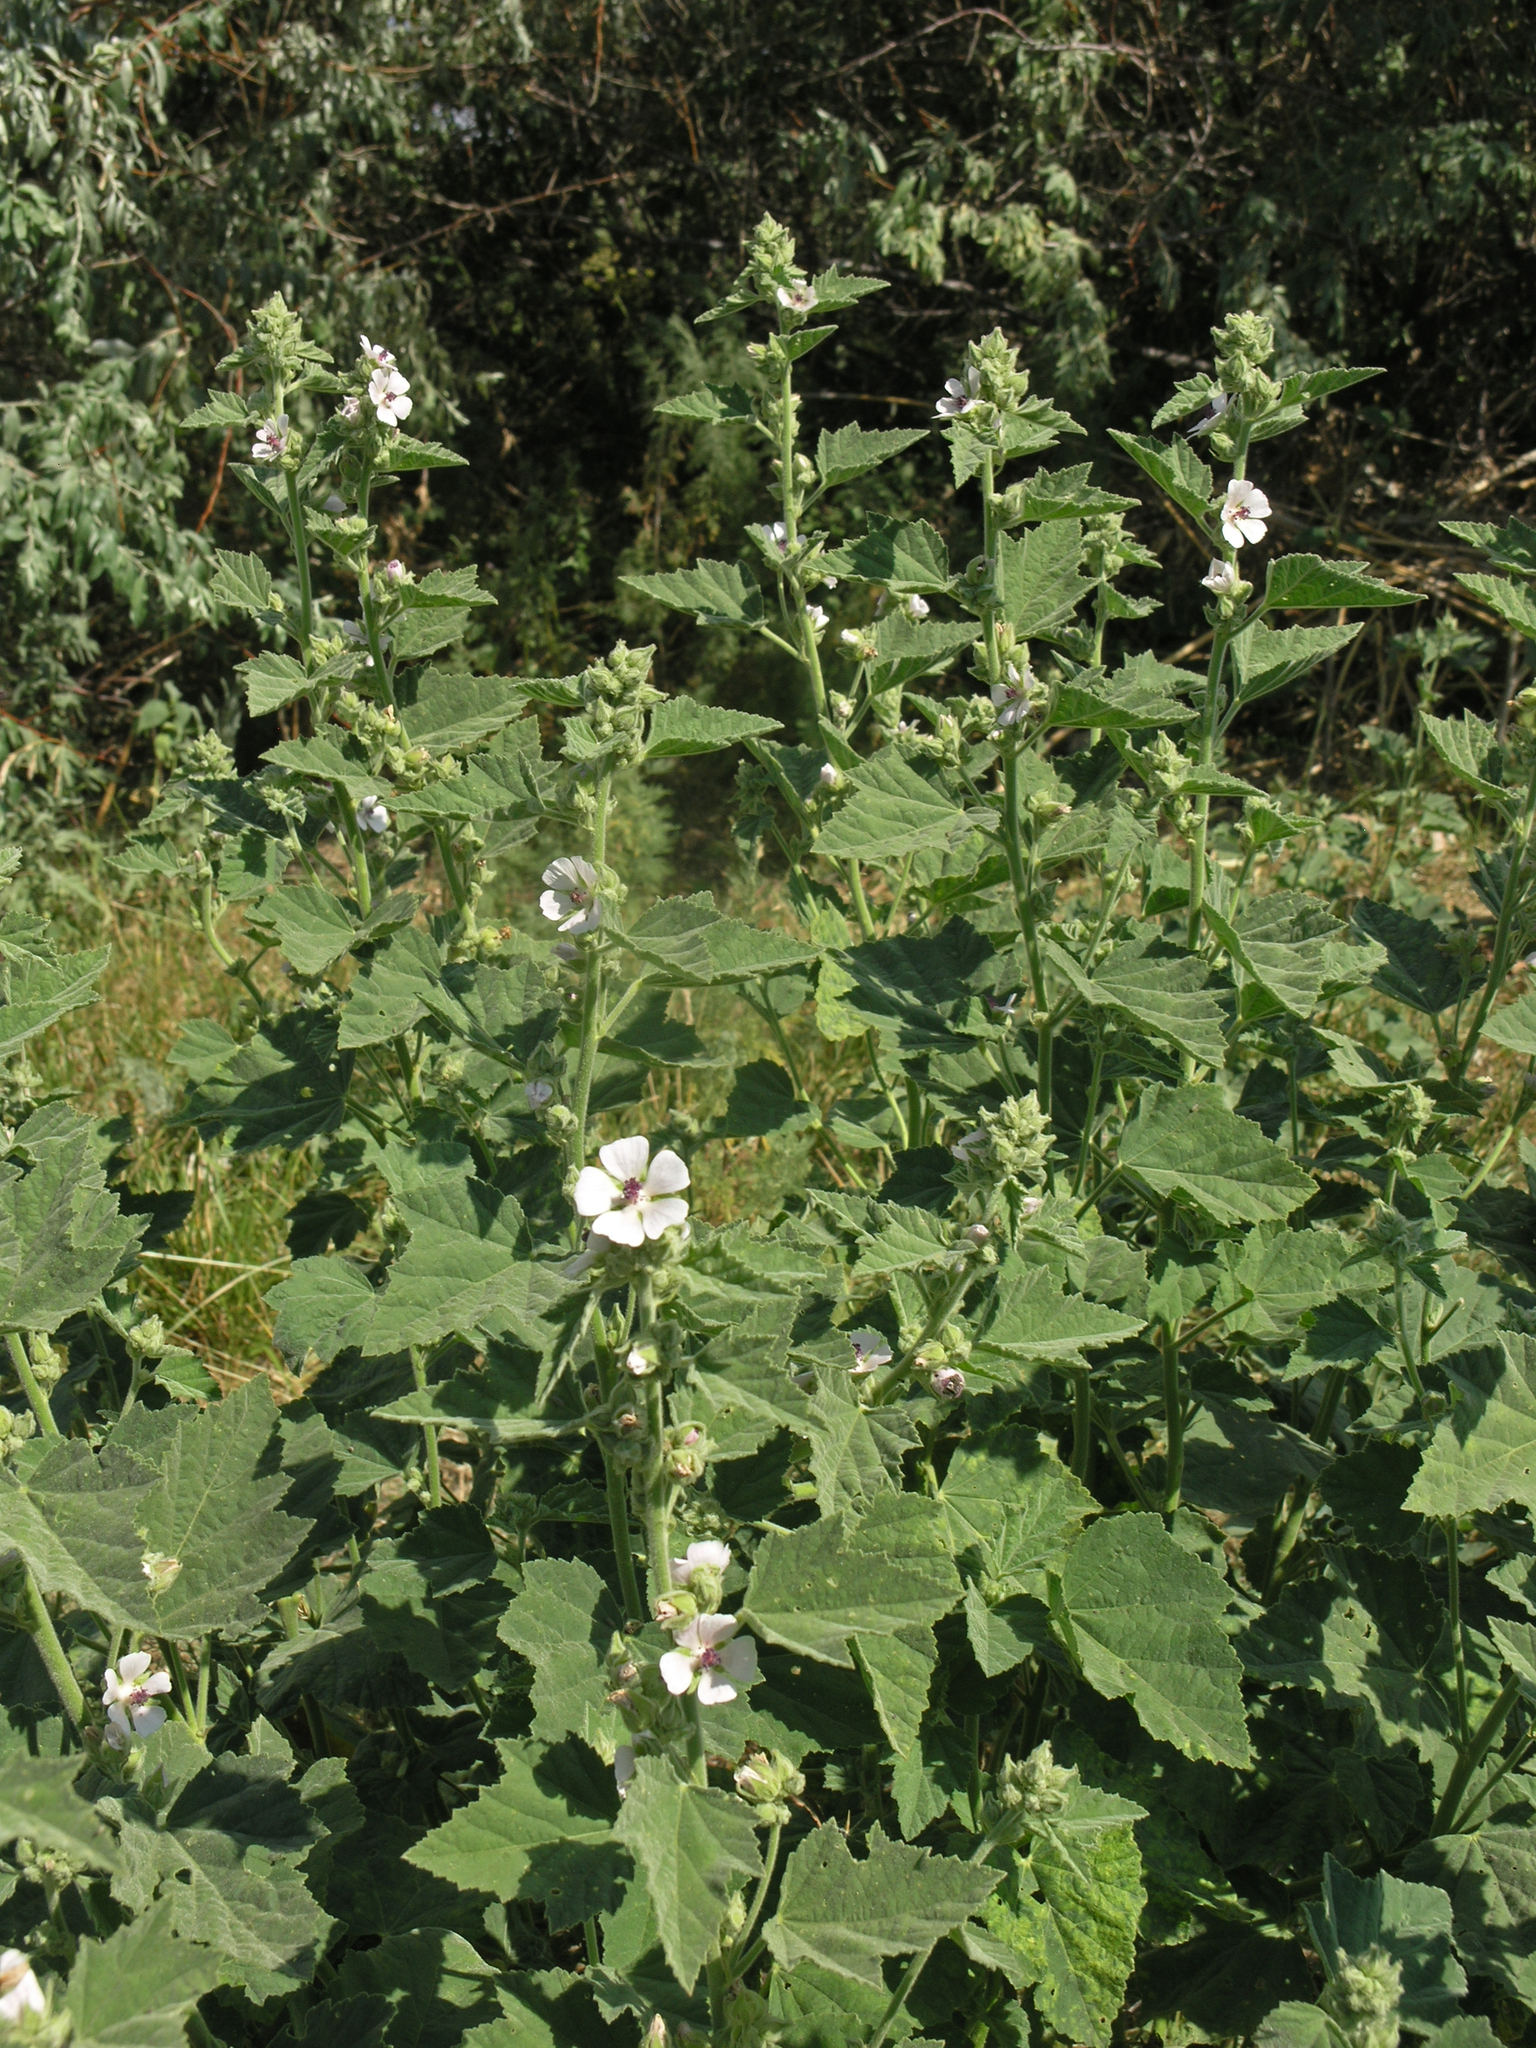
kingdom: Plantae
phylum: Tracheophyta
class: Magnoliopsida
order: Malvales
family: Malvaceae
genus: Althaea
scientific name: Althaea officinalis
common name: Marsh-mallow
